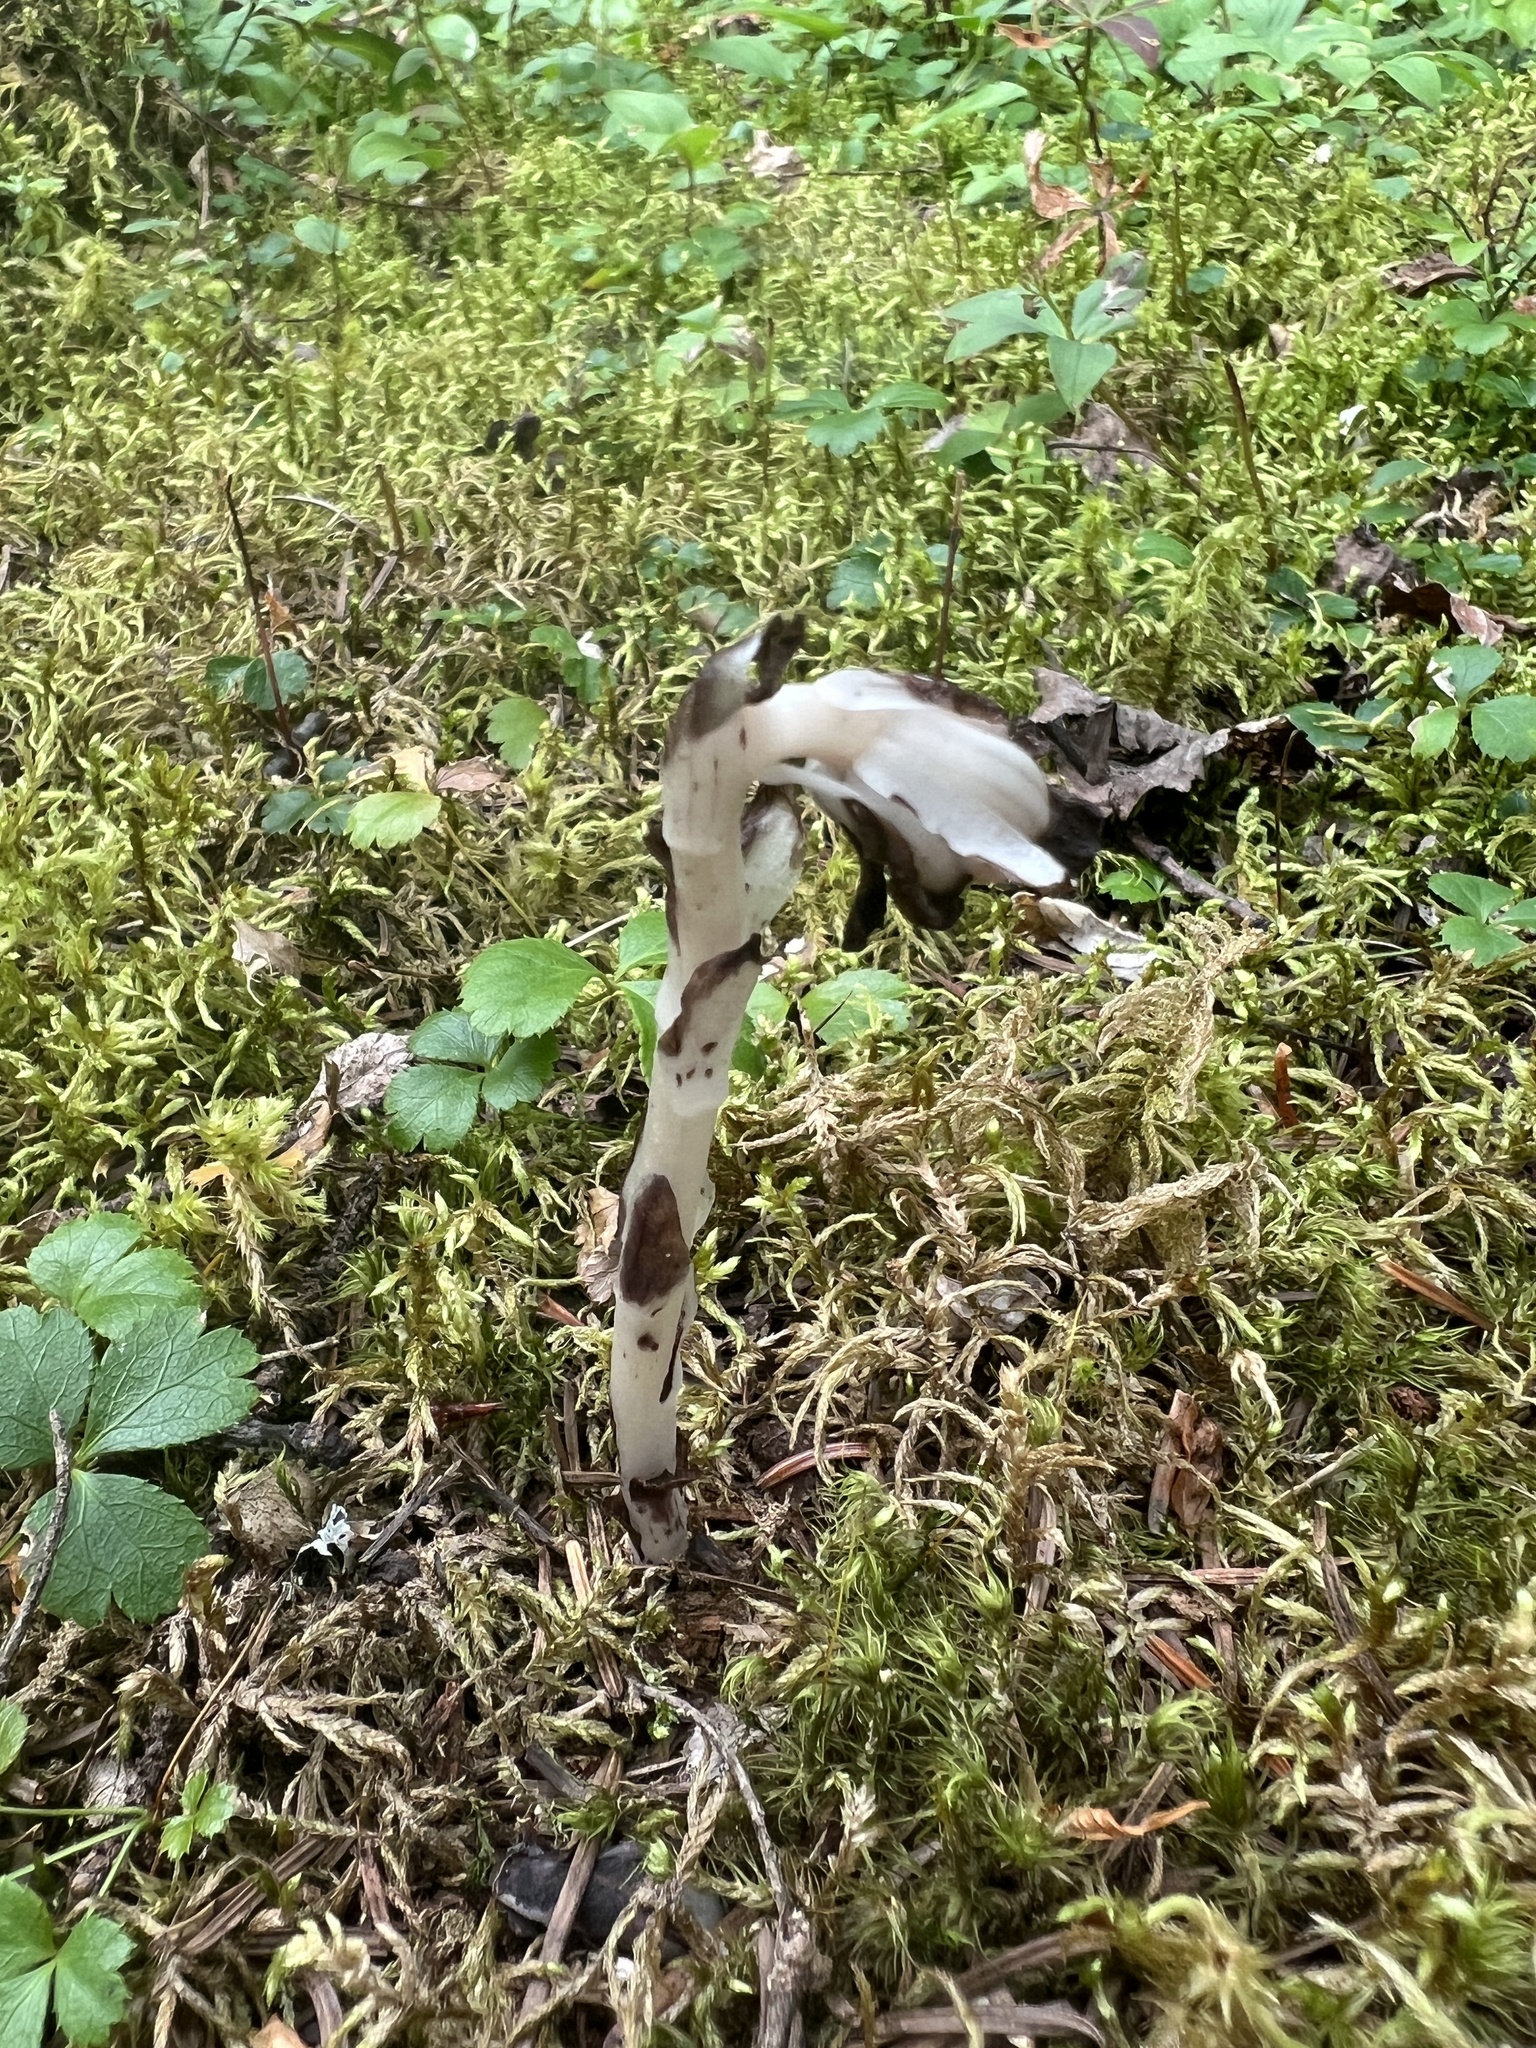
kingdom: Plantae
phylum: Tracheophyta
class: Magnoliopsida
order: Ericales
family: Ericaceae
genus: Monotropa
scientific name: Monotropa uniflora
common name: Convulsion root
